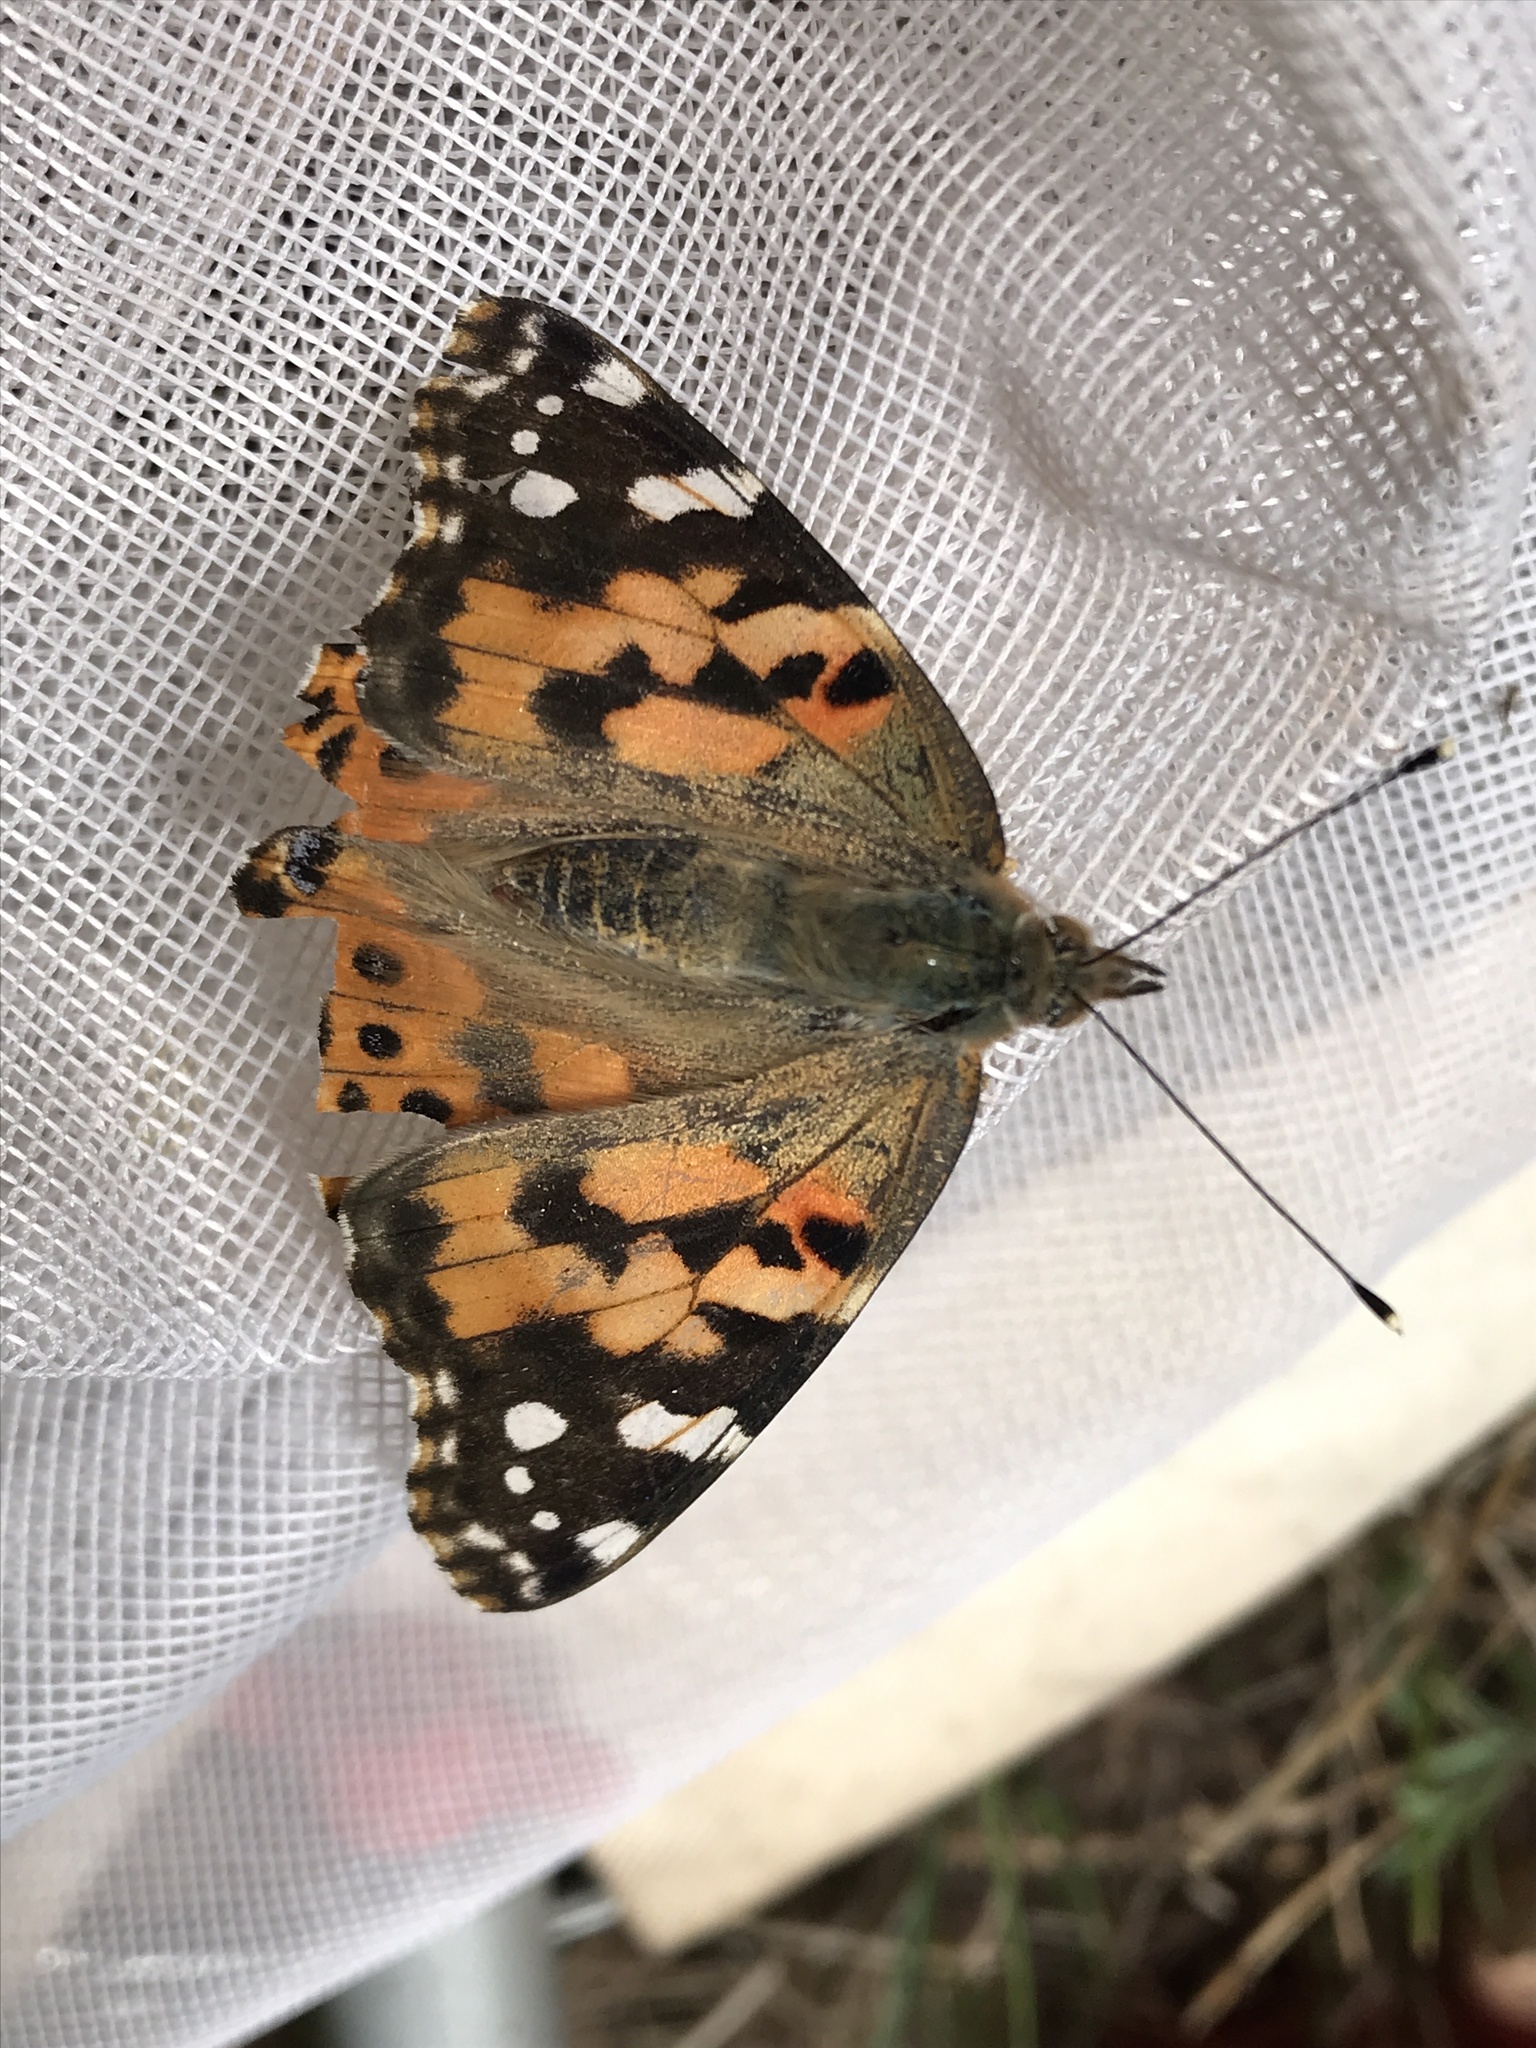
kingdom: Animalia
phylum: Arthropoda
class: Insecta
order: Lepidoptera
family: Nymphalidae
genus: Vanessa
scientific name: Vanessa cardui
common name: Painted lady
